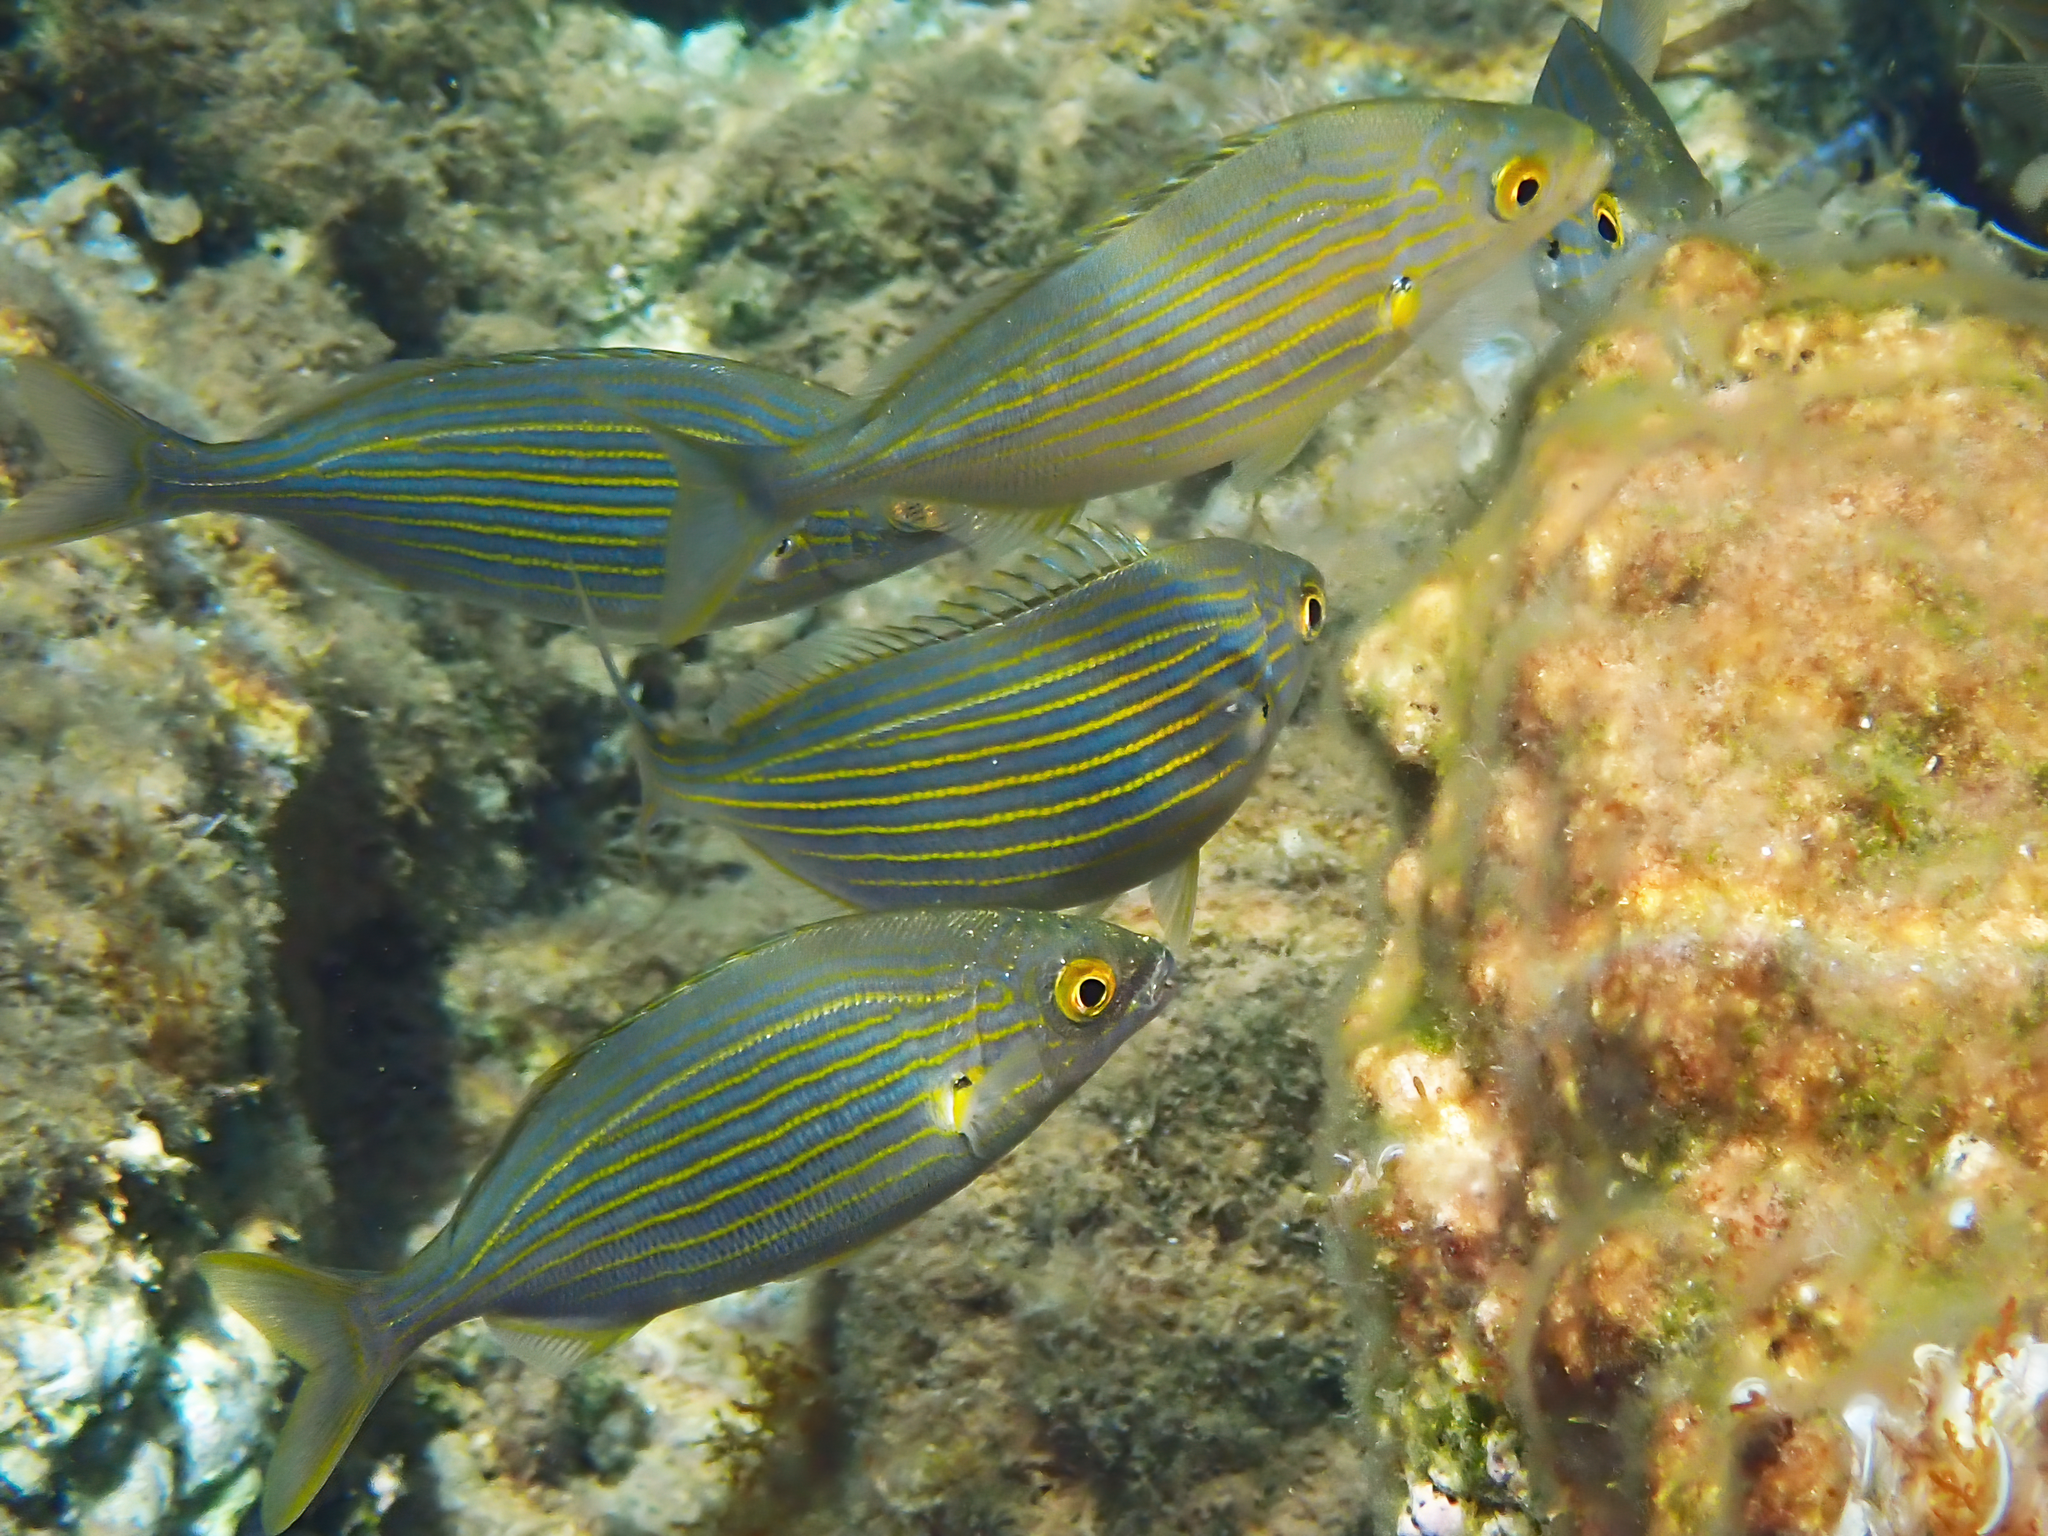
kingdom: Animalia
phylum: Chordata
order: Perciformes
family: Sparidae
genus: Sarpa
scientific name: Sarpa salpa
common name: Salema
